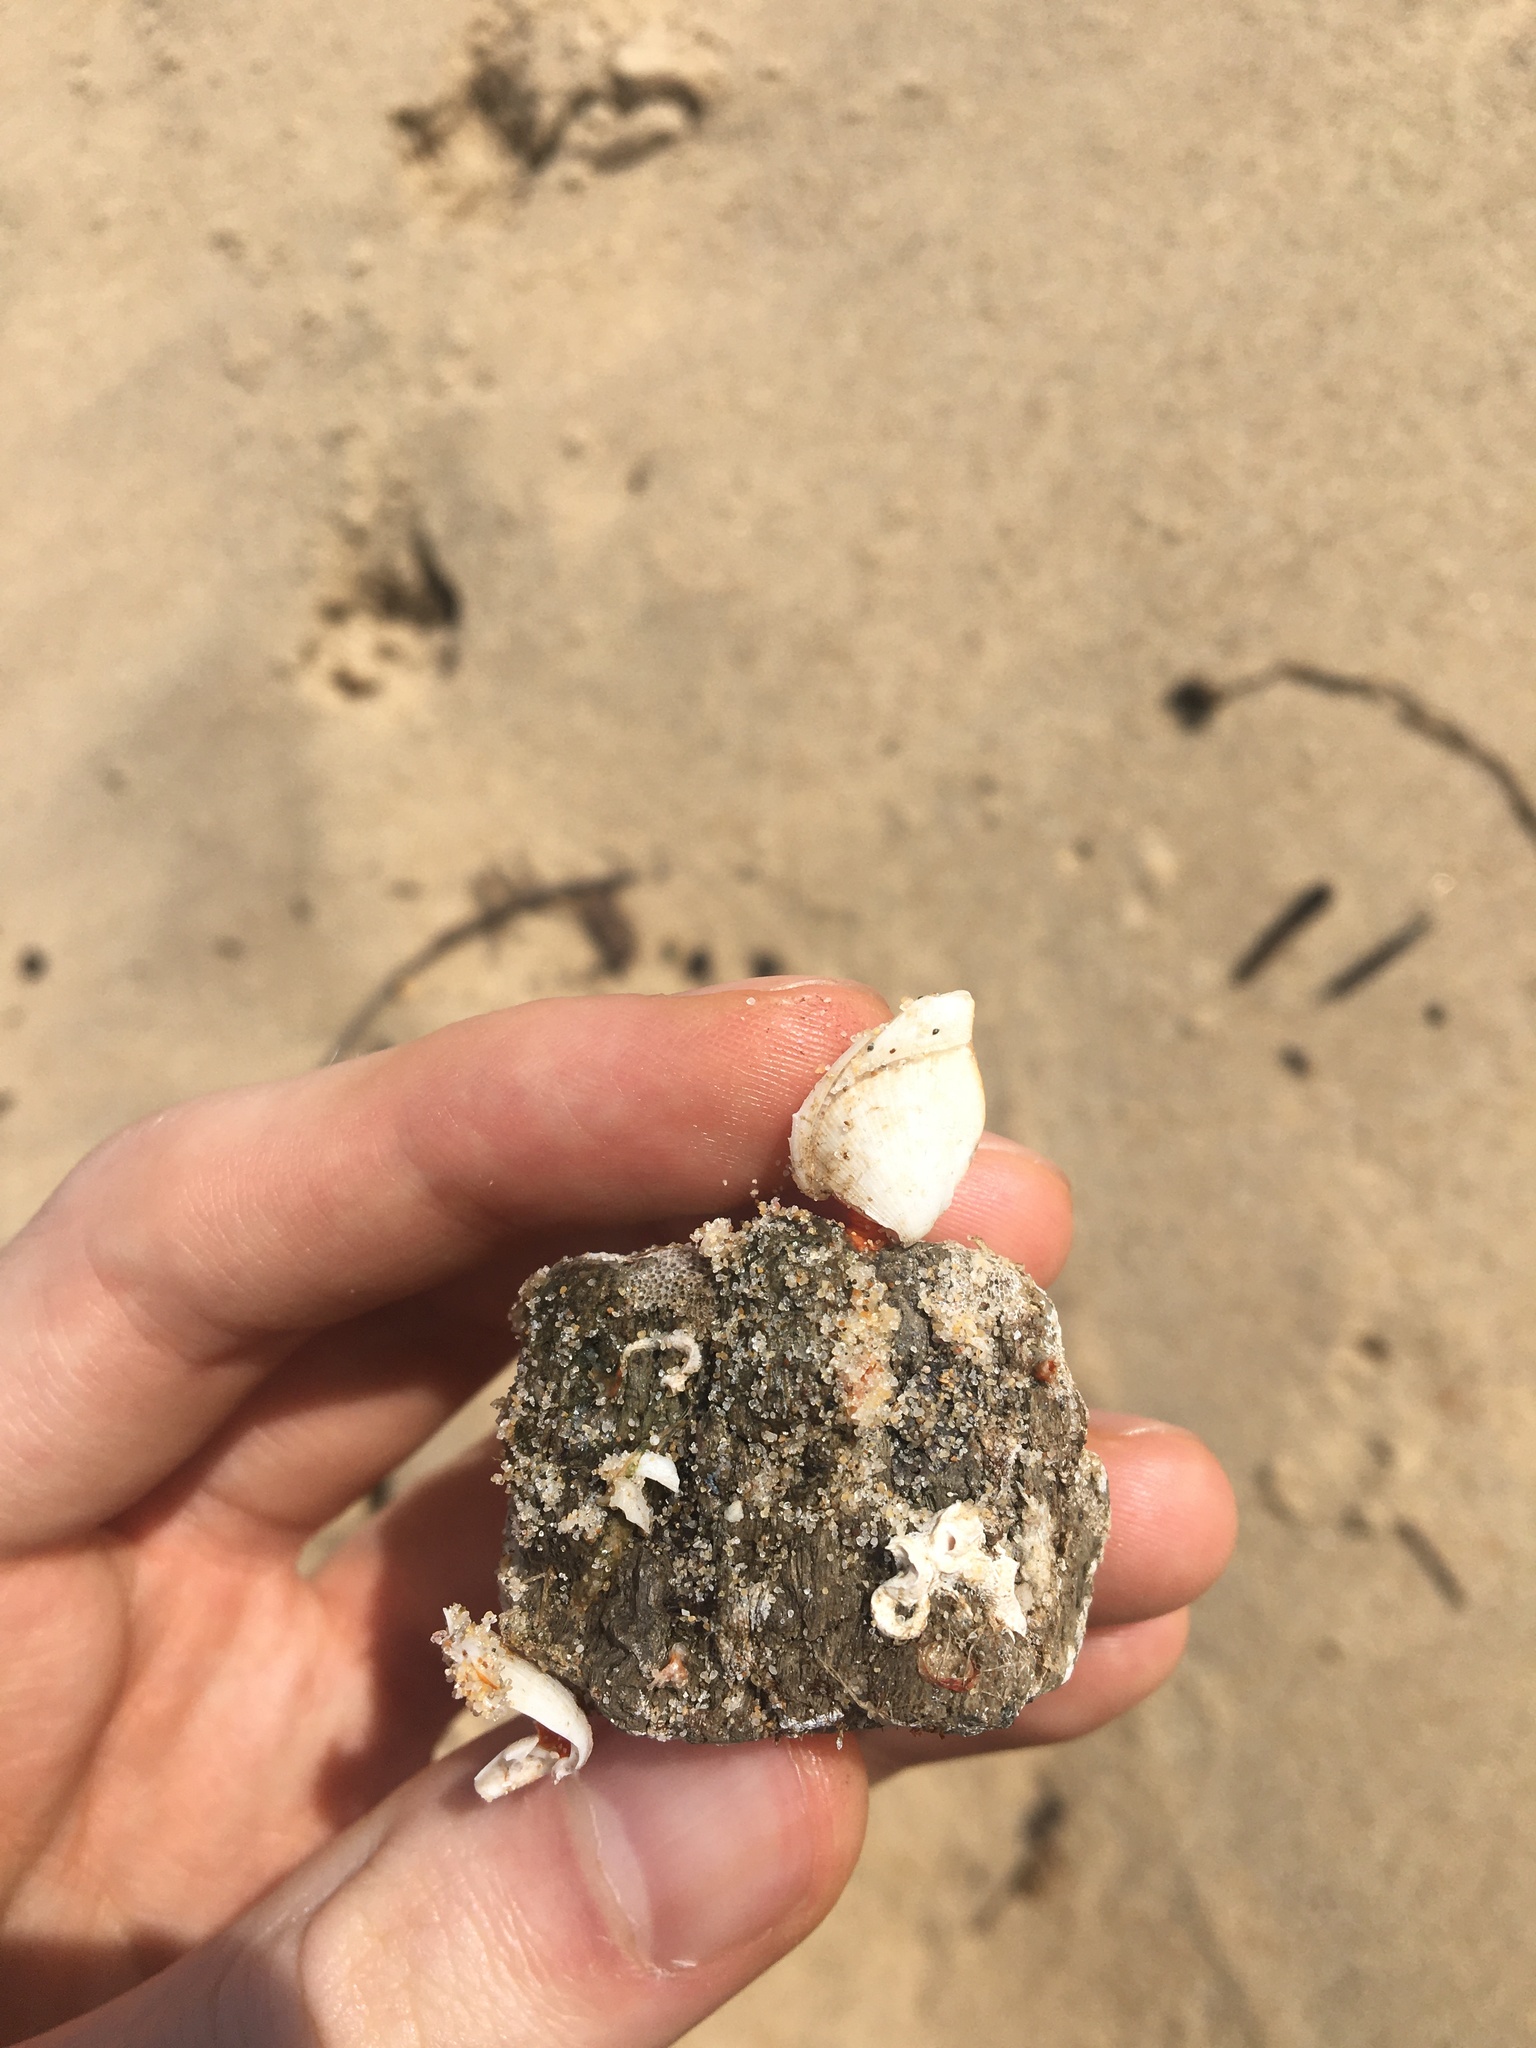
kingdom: Animalia
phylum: Arthropoda
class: Maxillopoda
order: Pedunculata
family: Lepadidae
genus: Lepas
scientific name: Lepas anserifera
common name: Goose barnacle
